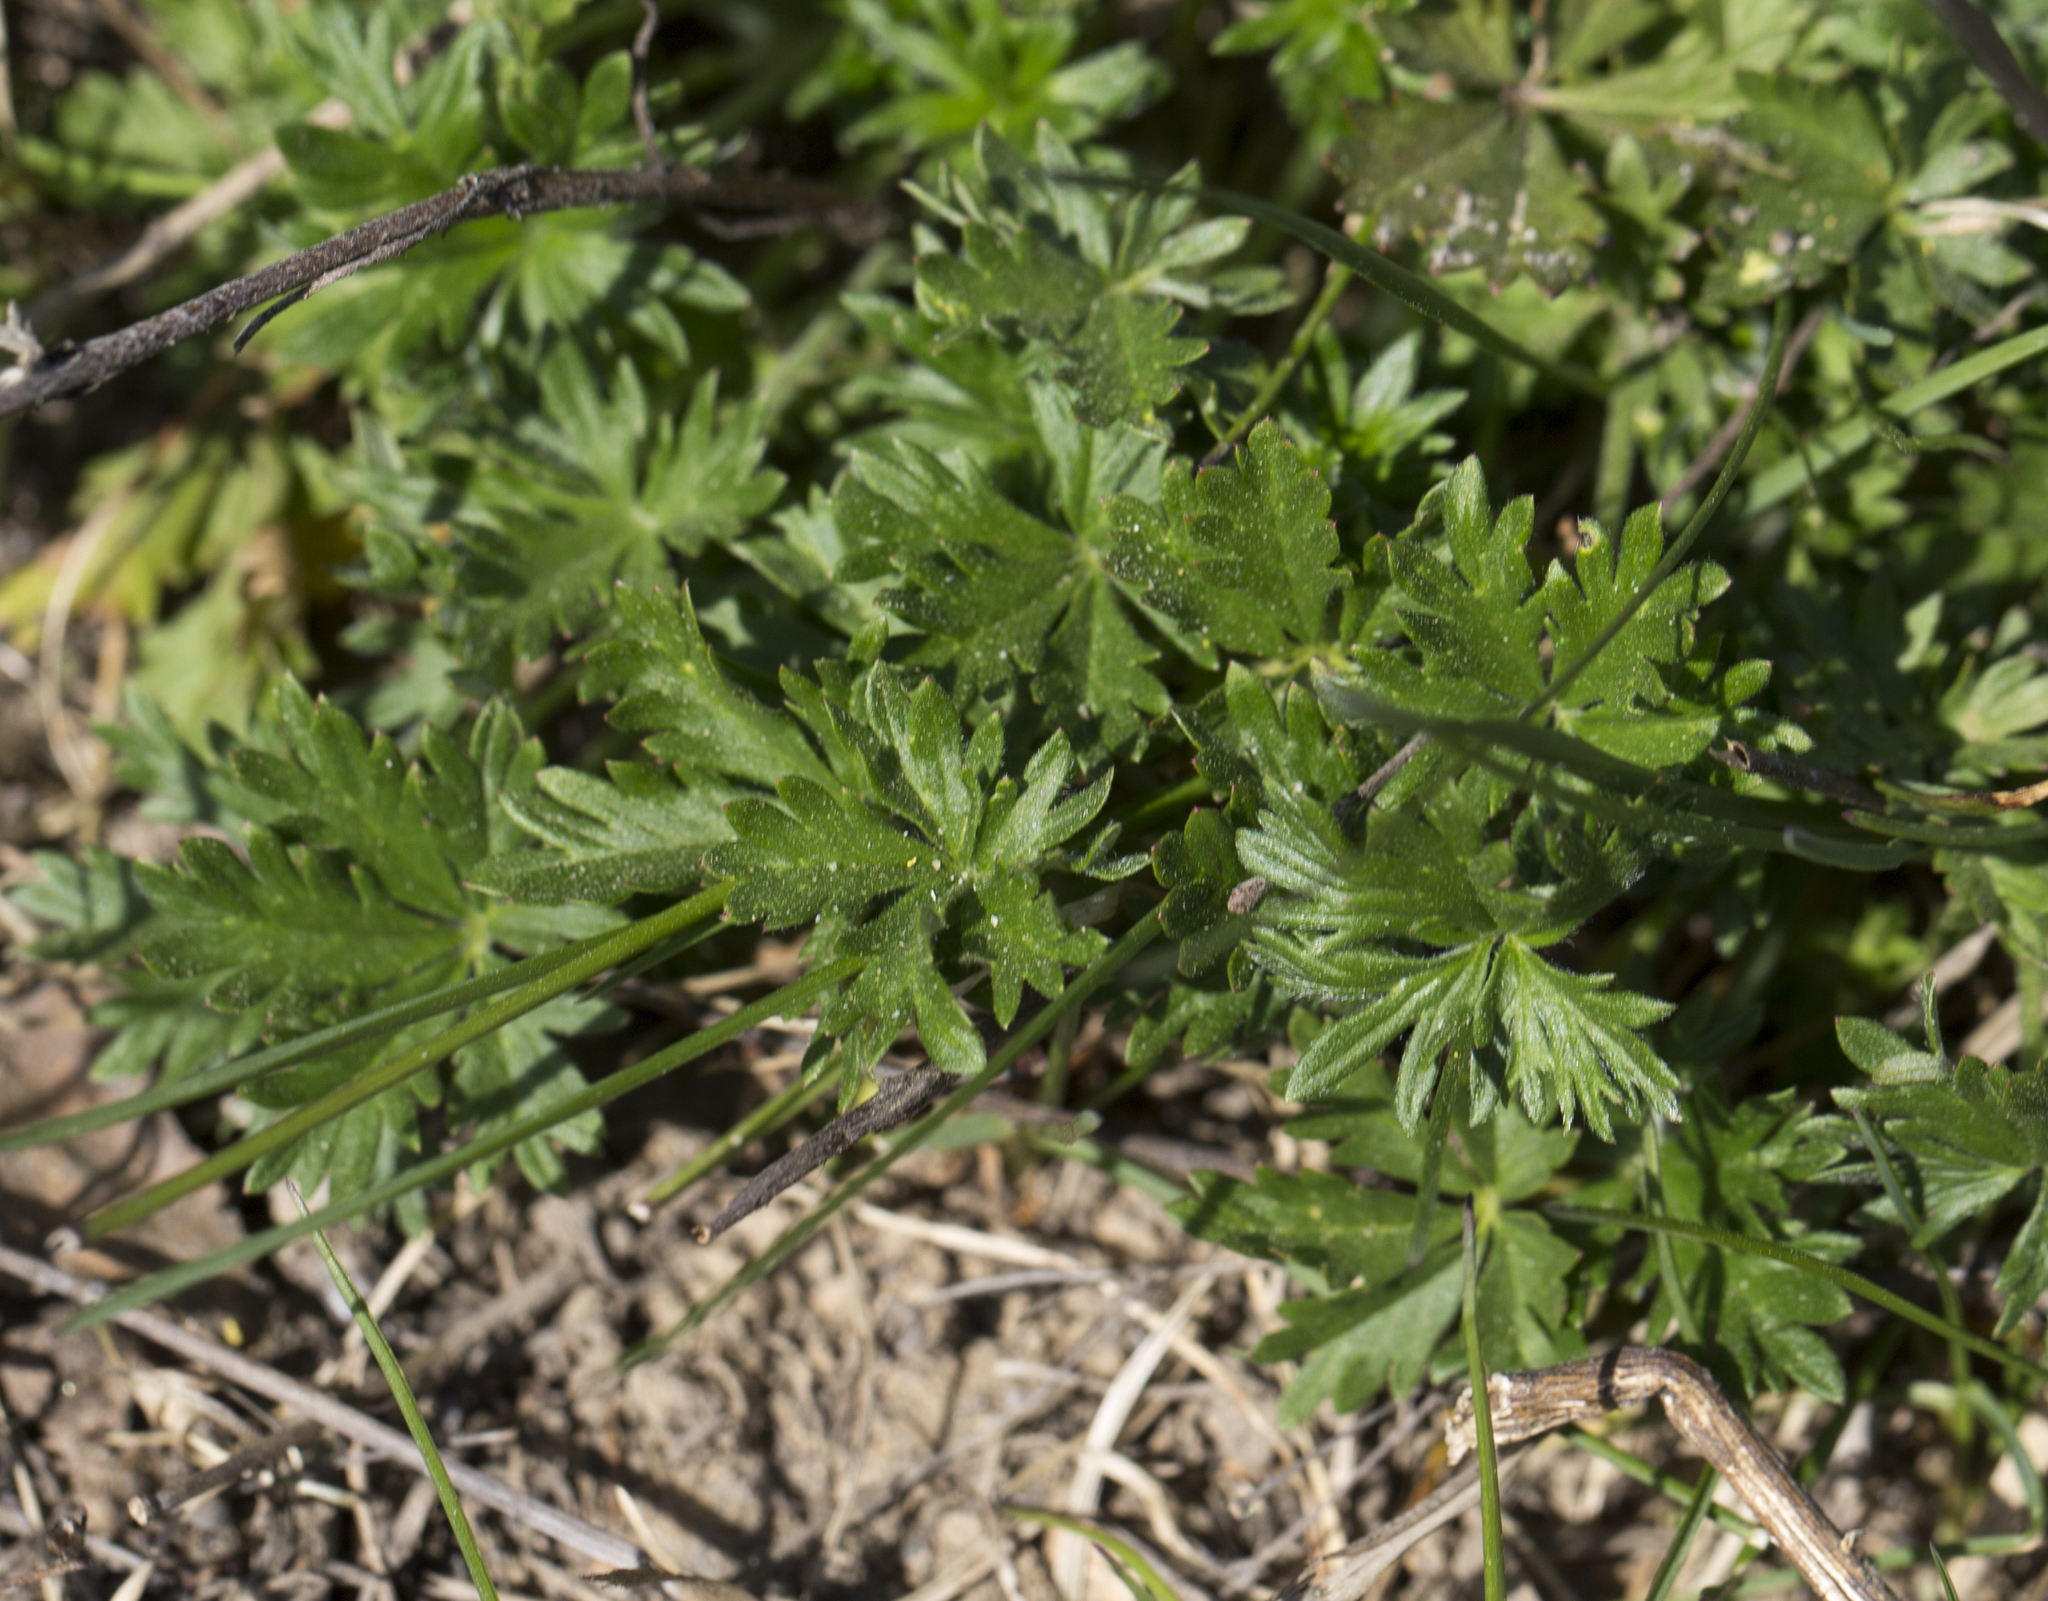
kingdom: Plantae
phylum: Tracheophyta
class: Magnoliopsida
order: Rosales
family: Rosaceae
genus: Potentilla
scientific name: Potentilla argentea
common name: Hoary cinquefoil
